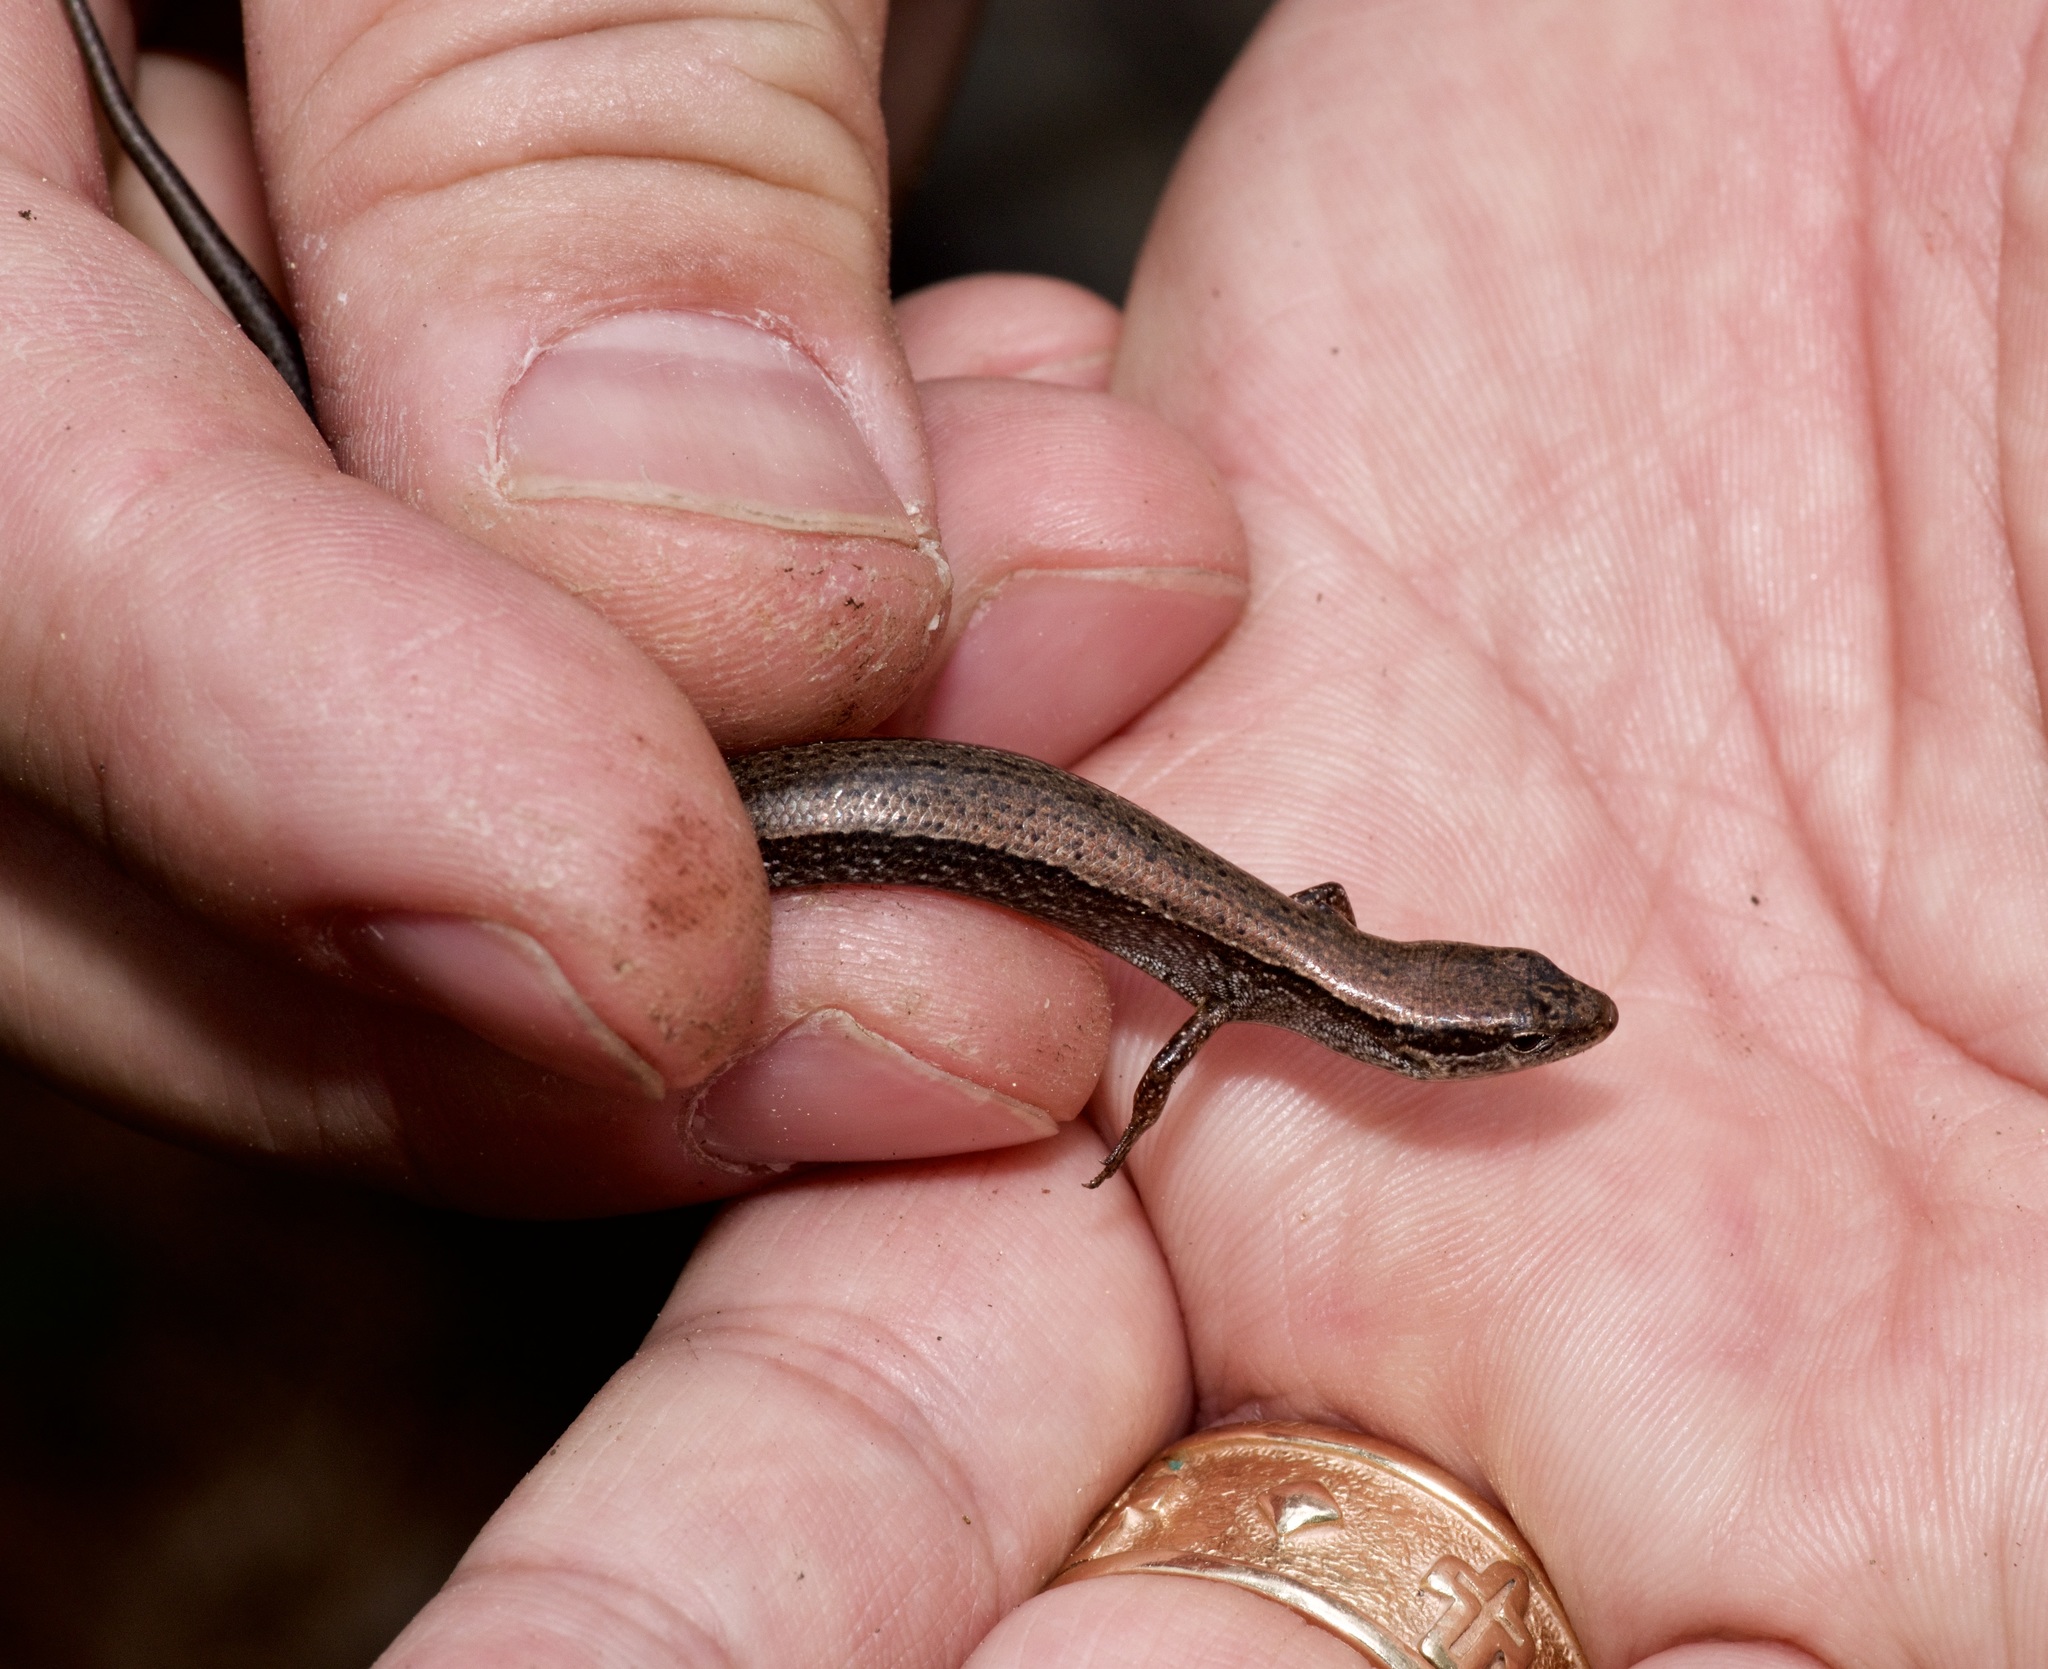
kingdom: Animalia
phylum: Chordata
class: Squamata
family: Scincidae
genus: Scincella
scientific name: Scincella lateralis
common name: Ground skink
